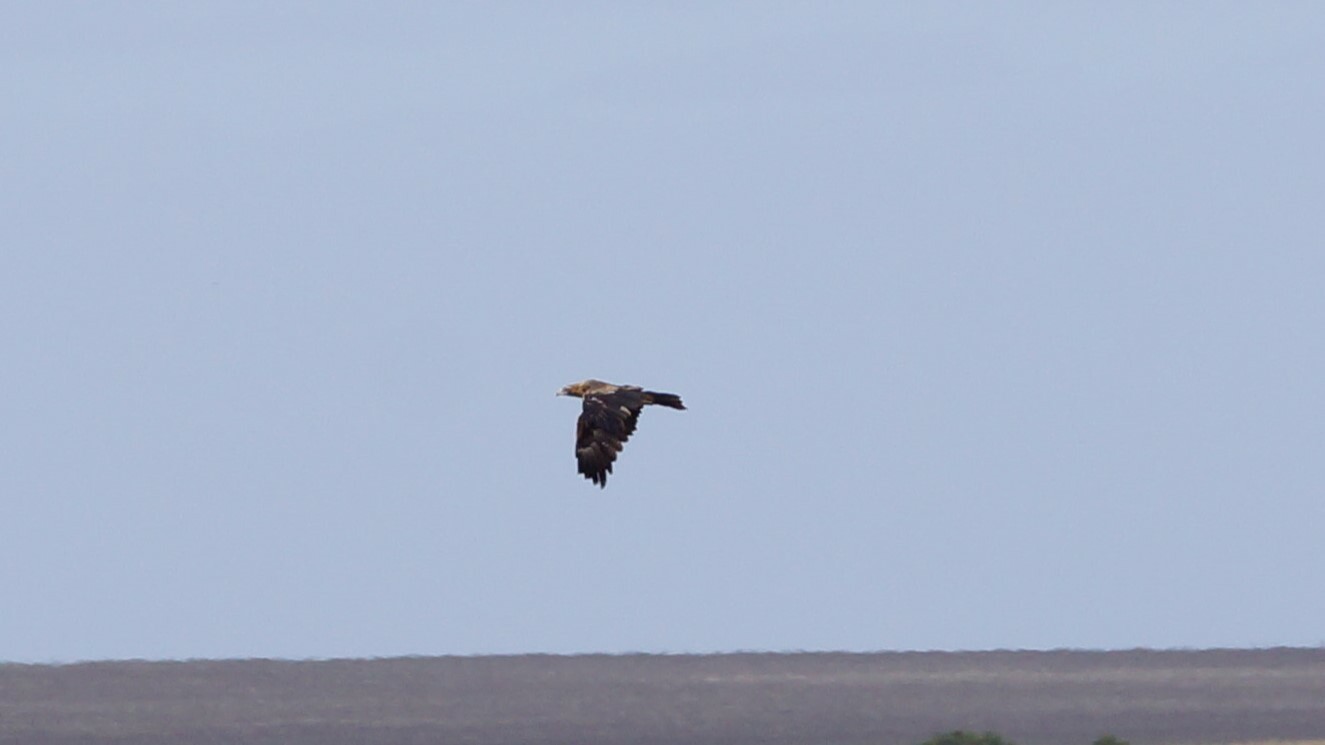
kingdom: Animalia
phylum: Chordata
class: Aves
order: Accipitriformes
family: Accipitridae
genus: Aquila
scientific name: Aquila audax
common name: Wedge-tailed eagle
